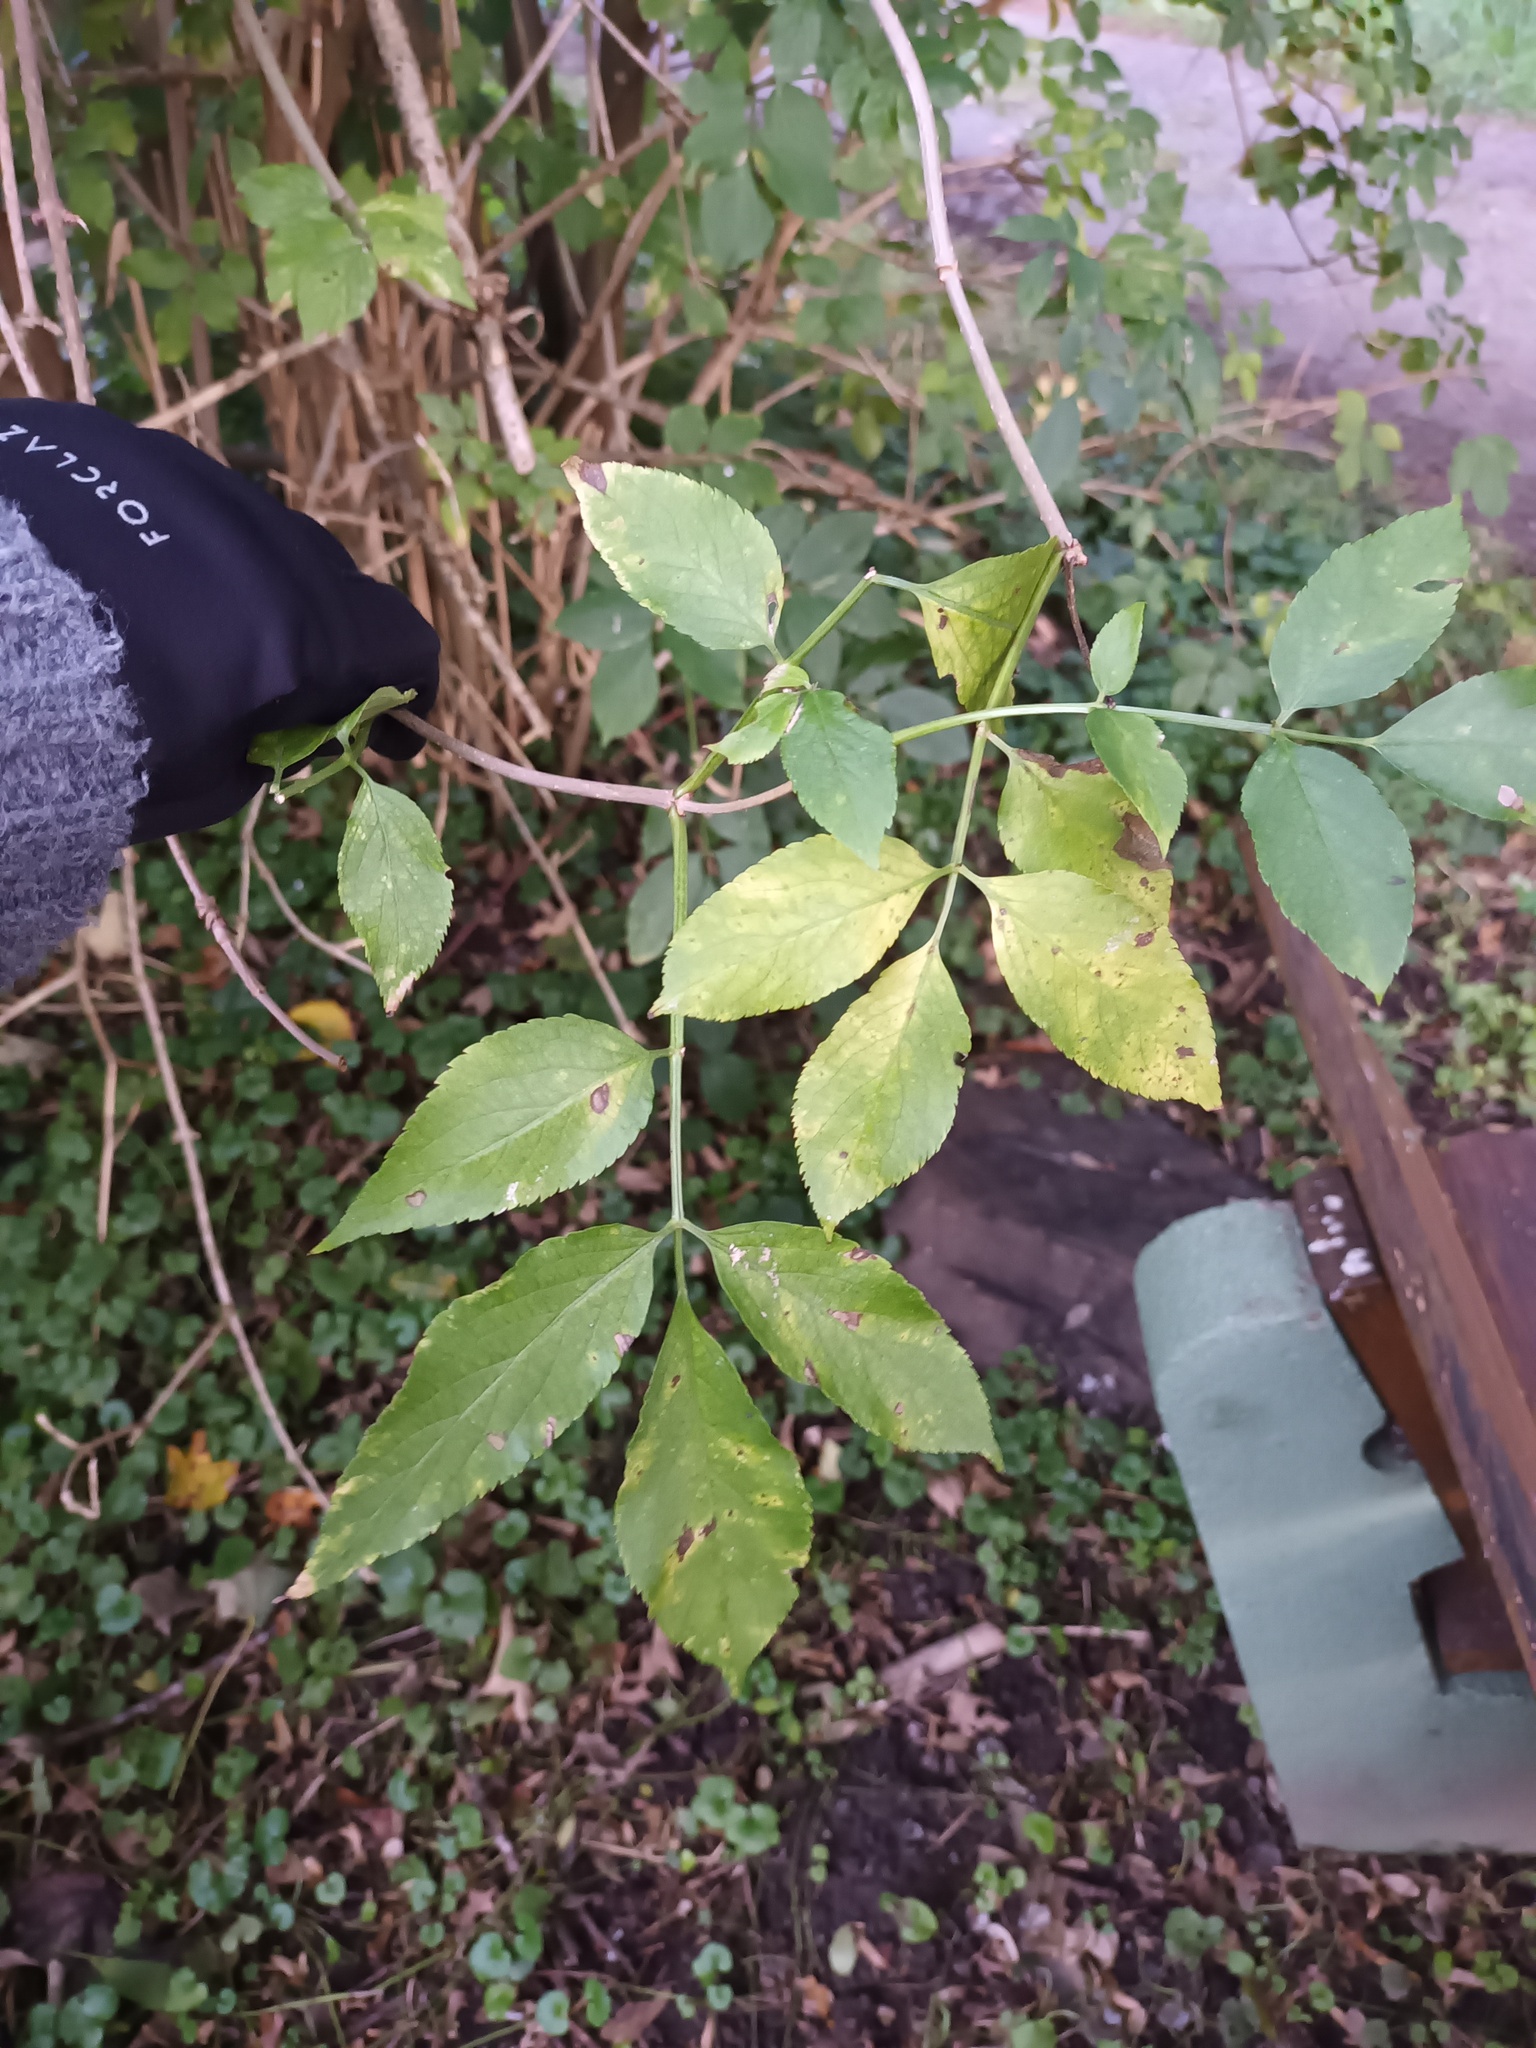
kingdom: Plantae
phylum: Tracheophyta
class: Magnoliopsida
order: Dipsacales
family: Viburnaceae
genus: Sambucus
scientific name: Sambucus nigra
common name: Elder
